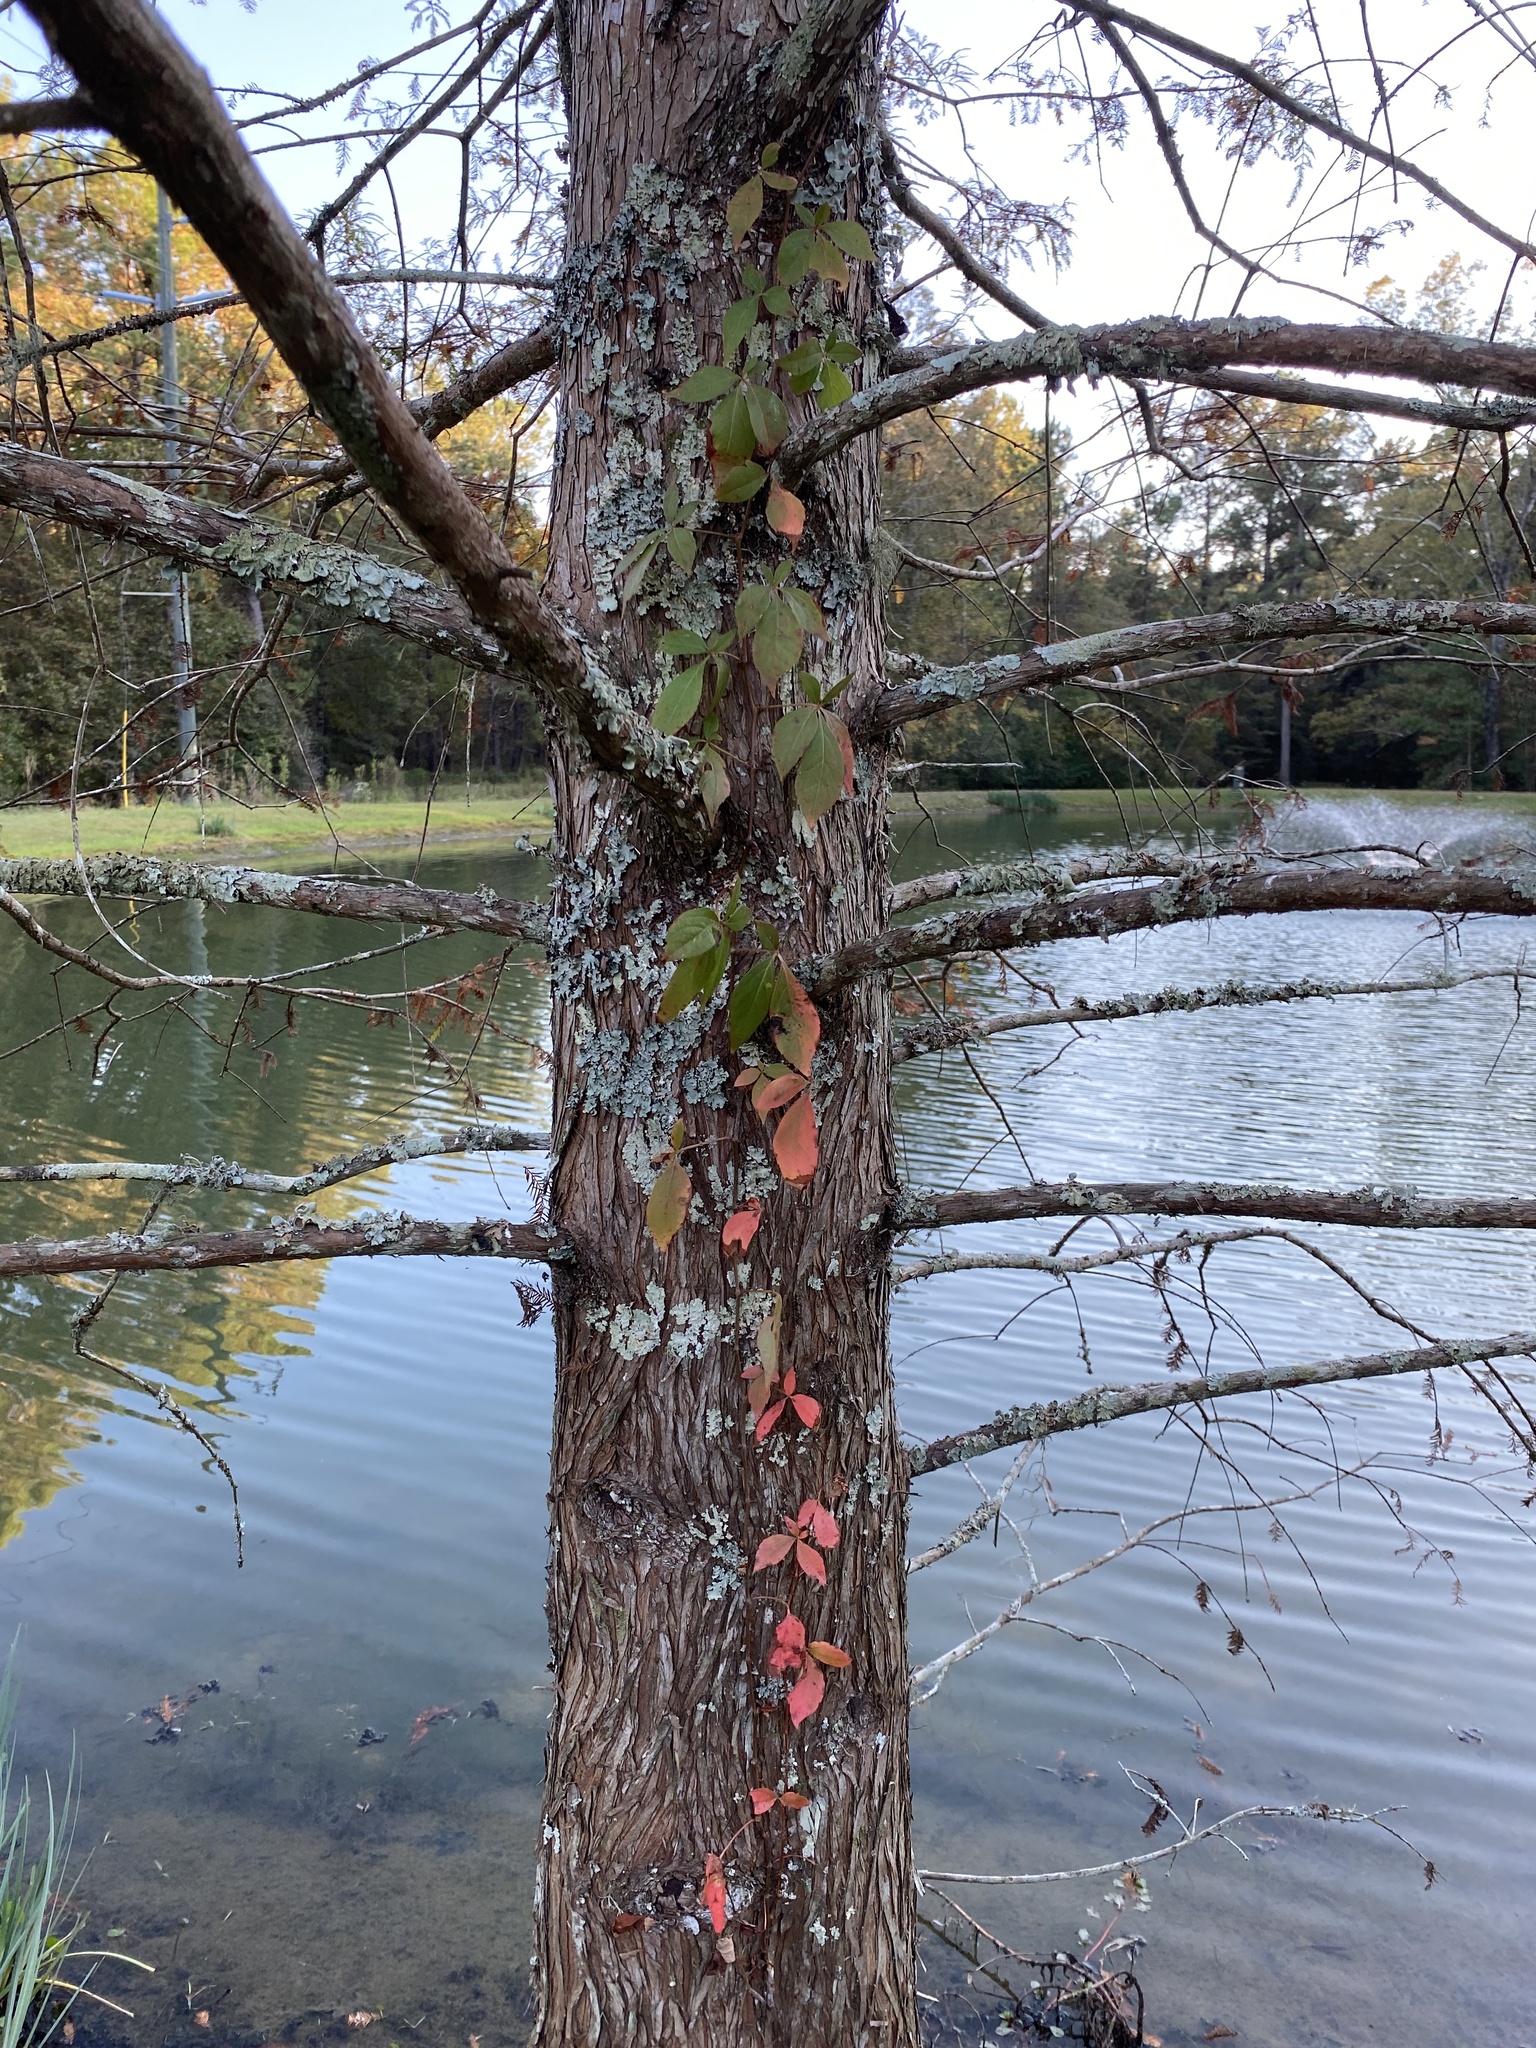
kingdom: Plantae
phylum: Tracheophyta
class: Magnoliopsida
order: Vitales
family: Vitaceae
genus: Parthenocissus
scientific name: Parthenocissus quinquefolia
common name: Virginia-creeper
